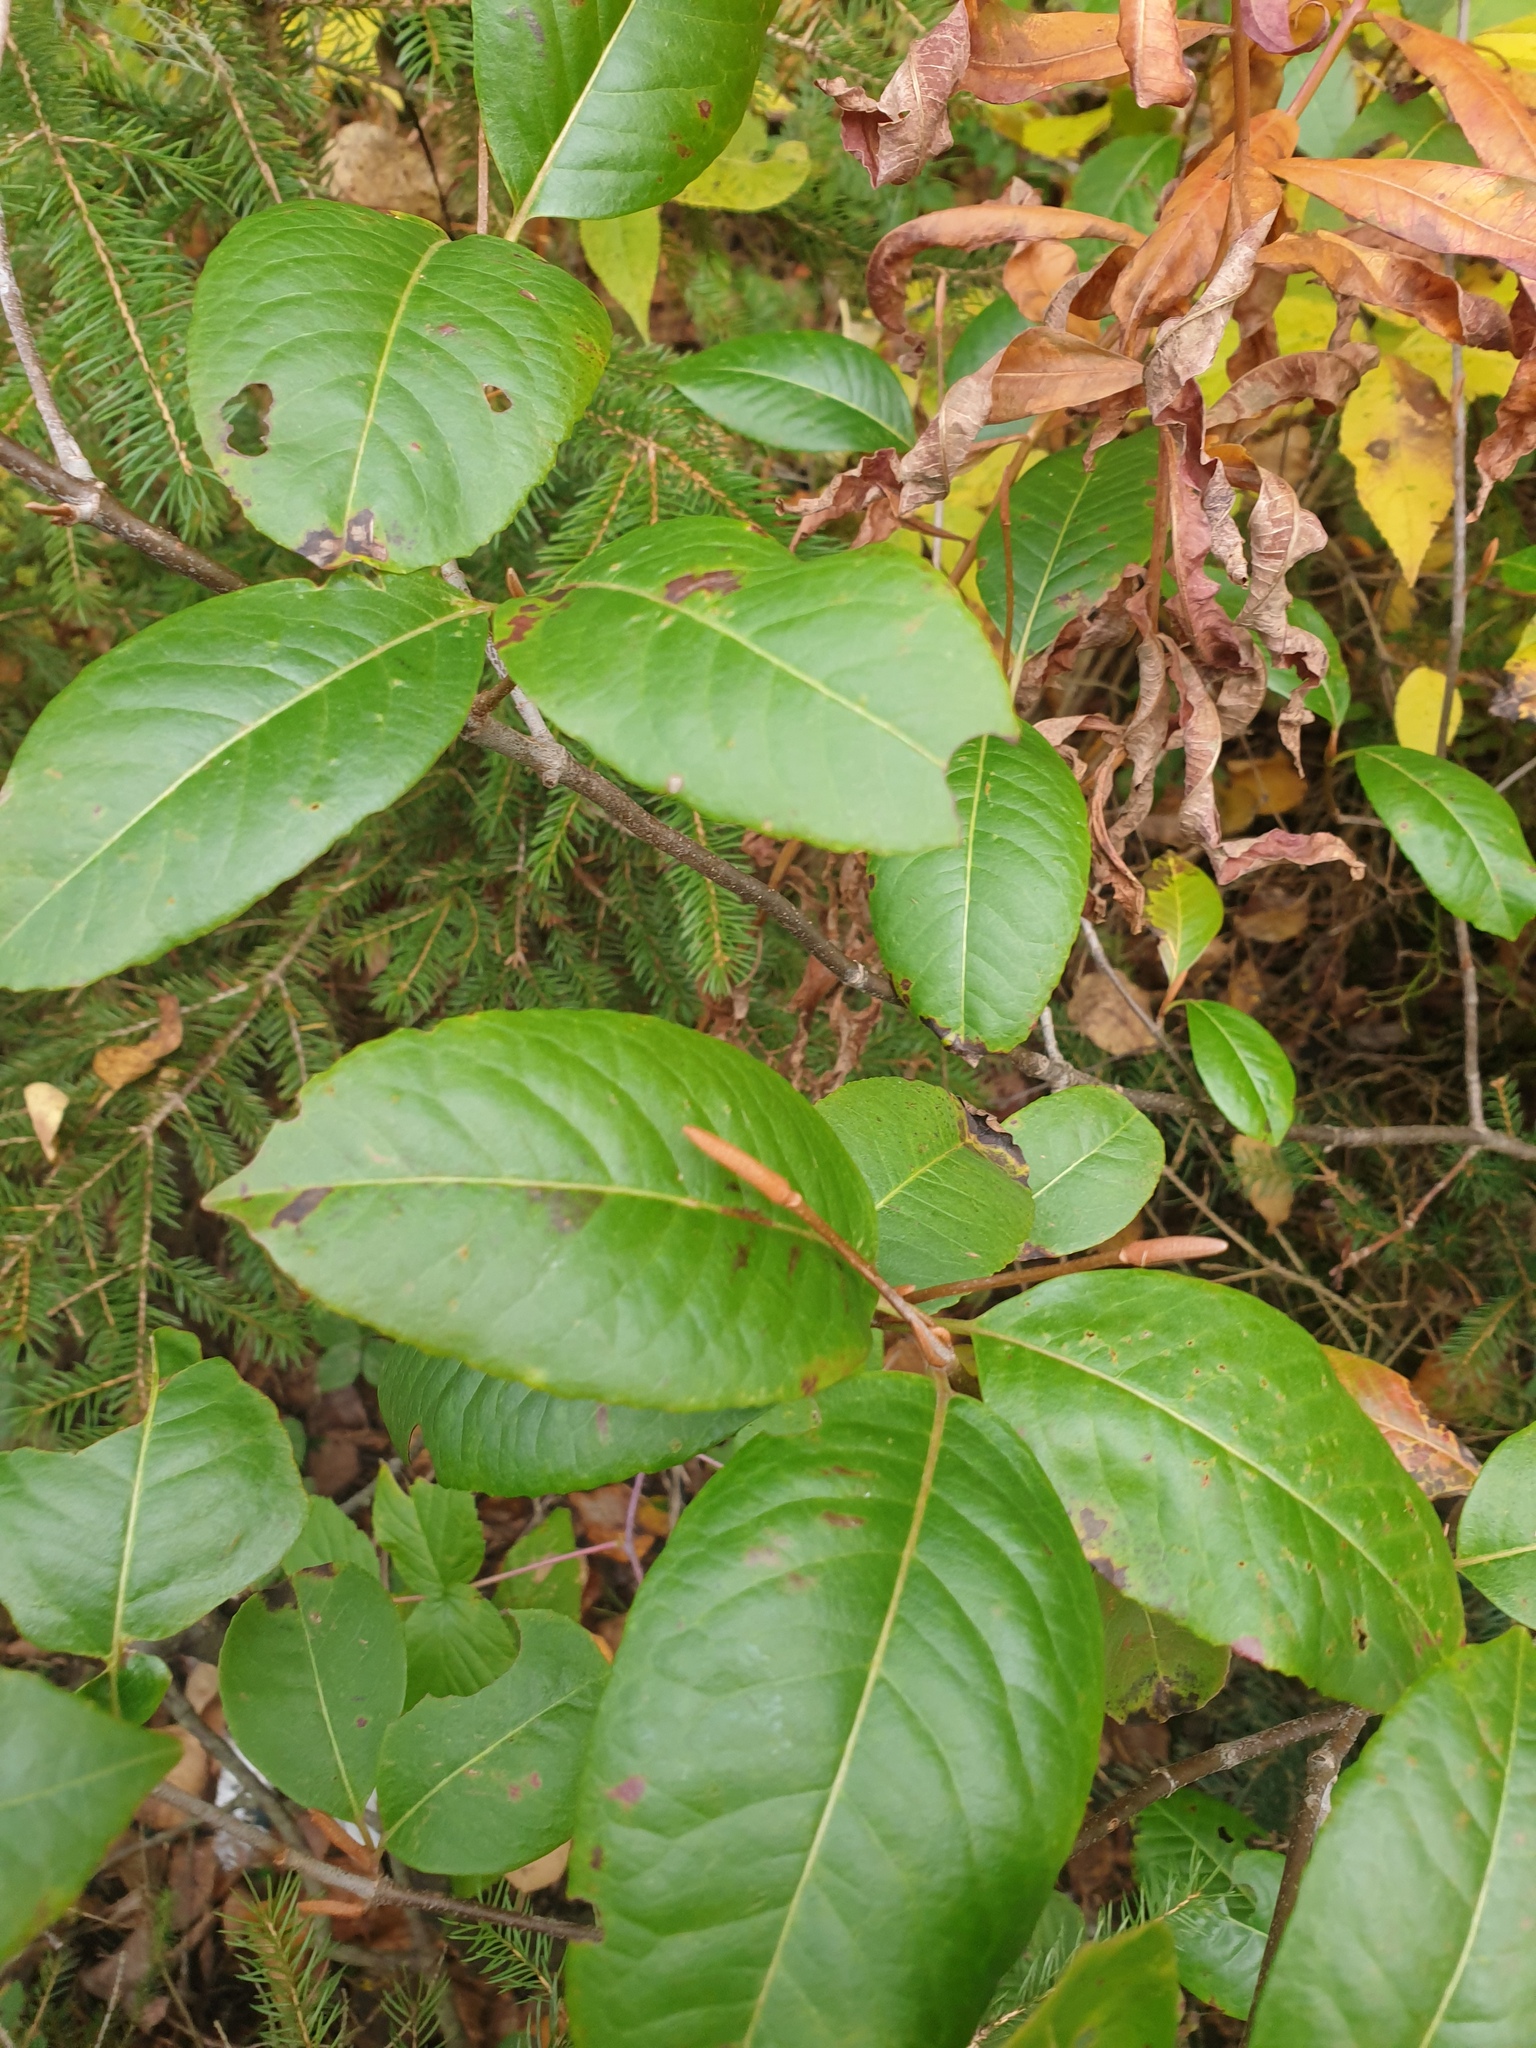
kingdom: Plantae
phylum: Tracheophyta
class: Magnoliopsida
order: Dipsacales
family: Viburnaceae
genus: Viburnum
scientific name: Viburnum cassinoides
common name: Swamp haw
